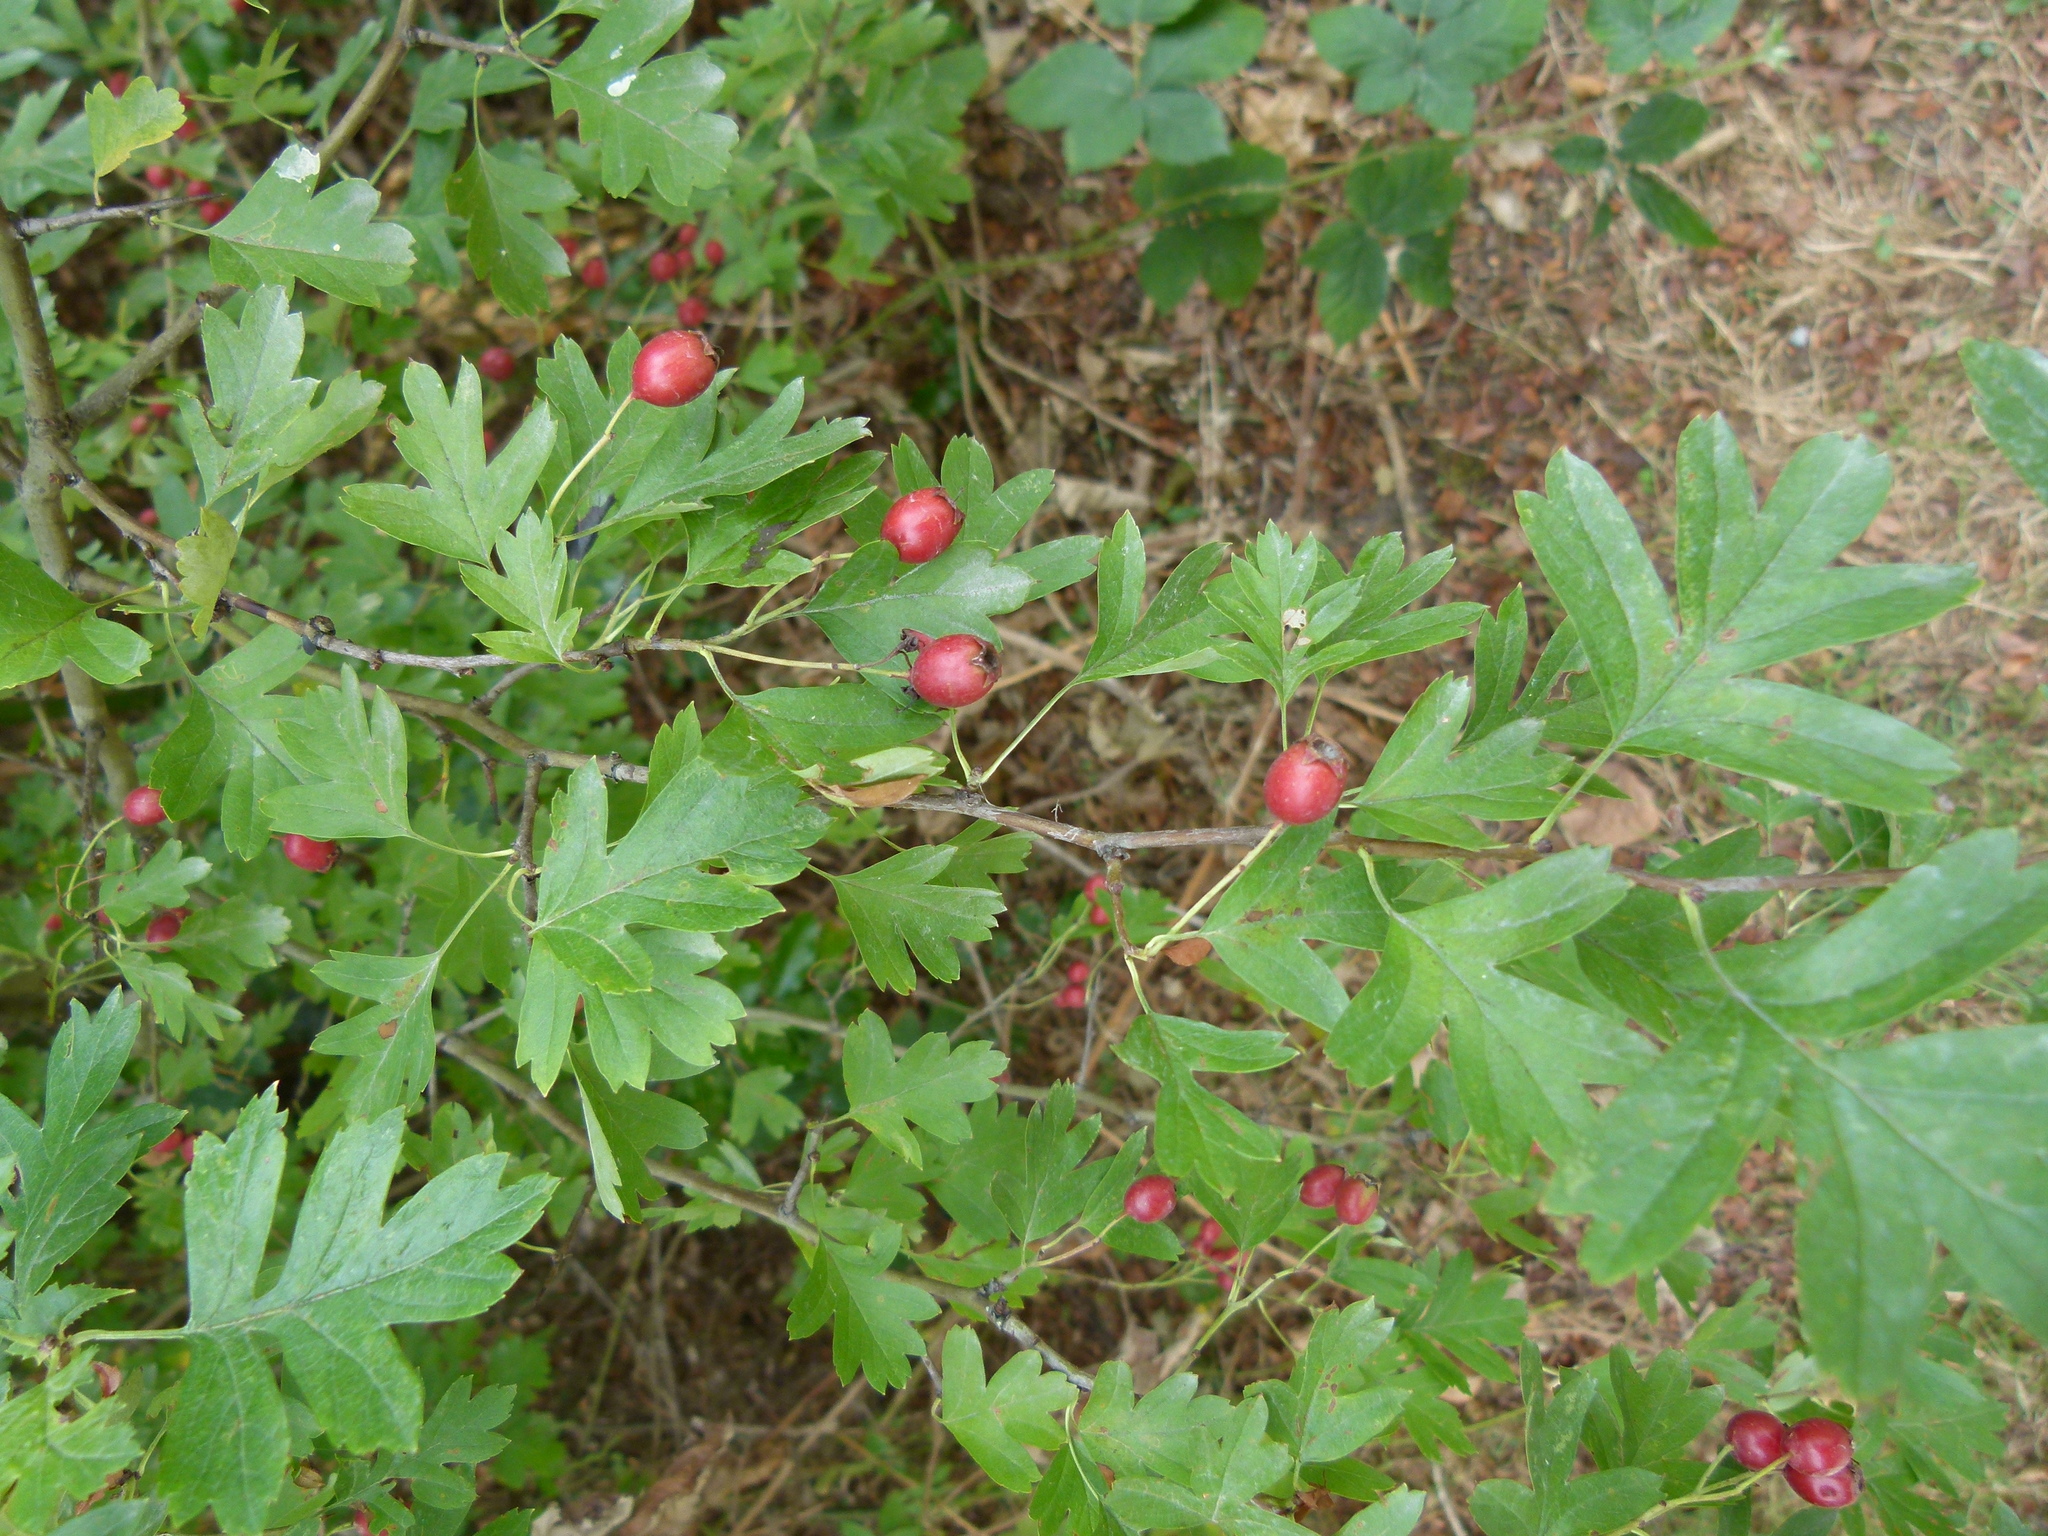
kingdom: Plantae
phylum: Tracheophyta
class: Magnoliopsida
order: Rosales
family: Rosaceae
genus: Crataegus
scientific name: Crataegus monogyna
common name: Hawthorn
